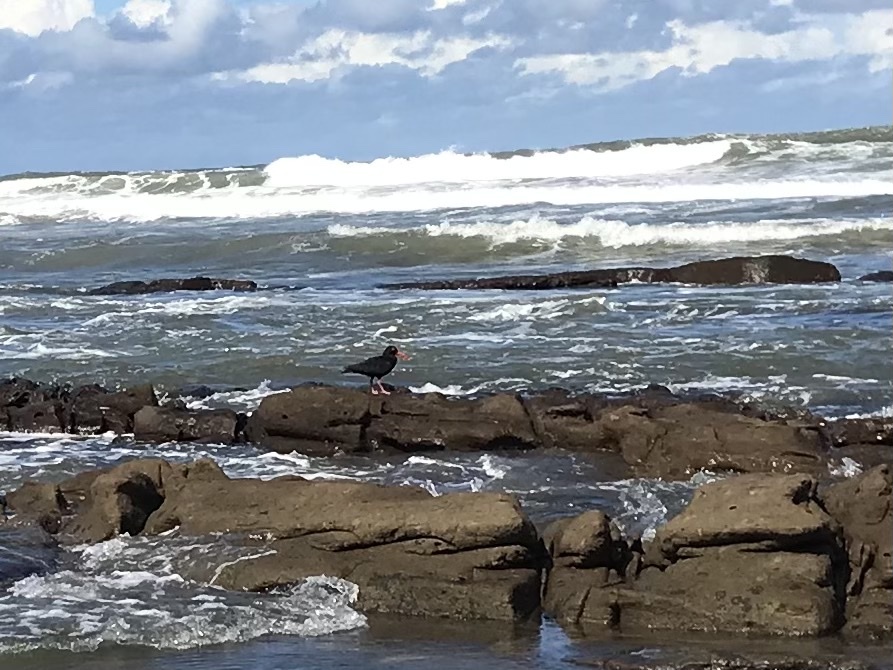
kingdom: Animalia
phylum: Chordata
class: Aves
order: Charadriiformes
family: Haematopodidae
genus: Haematopus
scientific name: Haematopus moquini
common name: African oystercatcher
